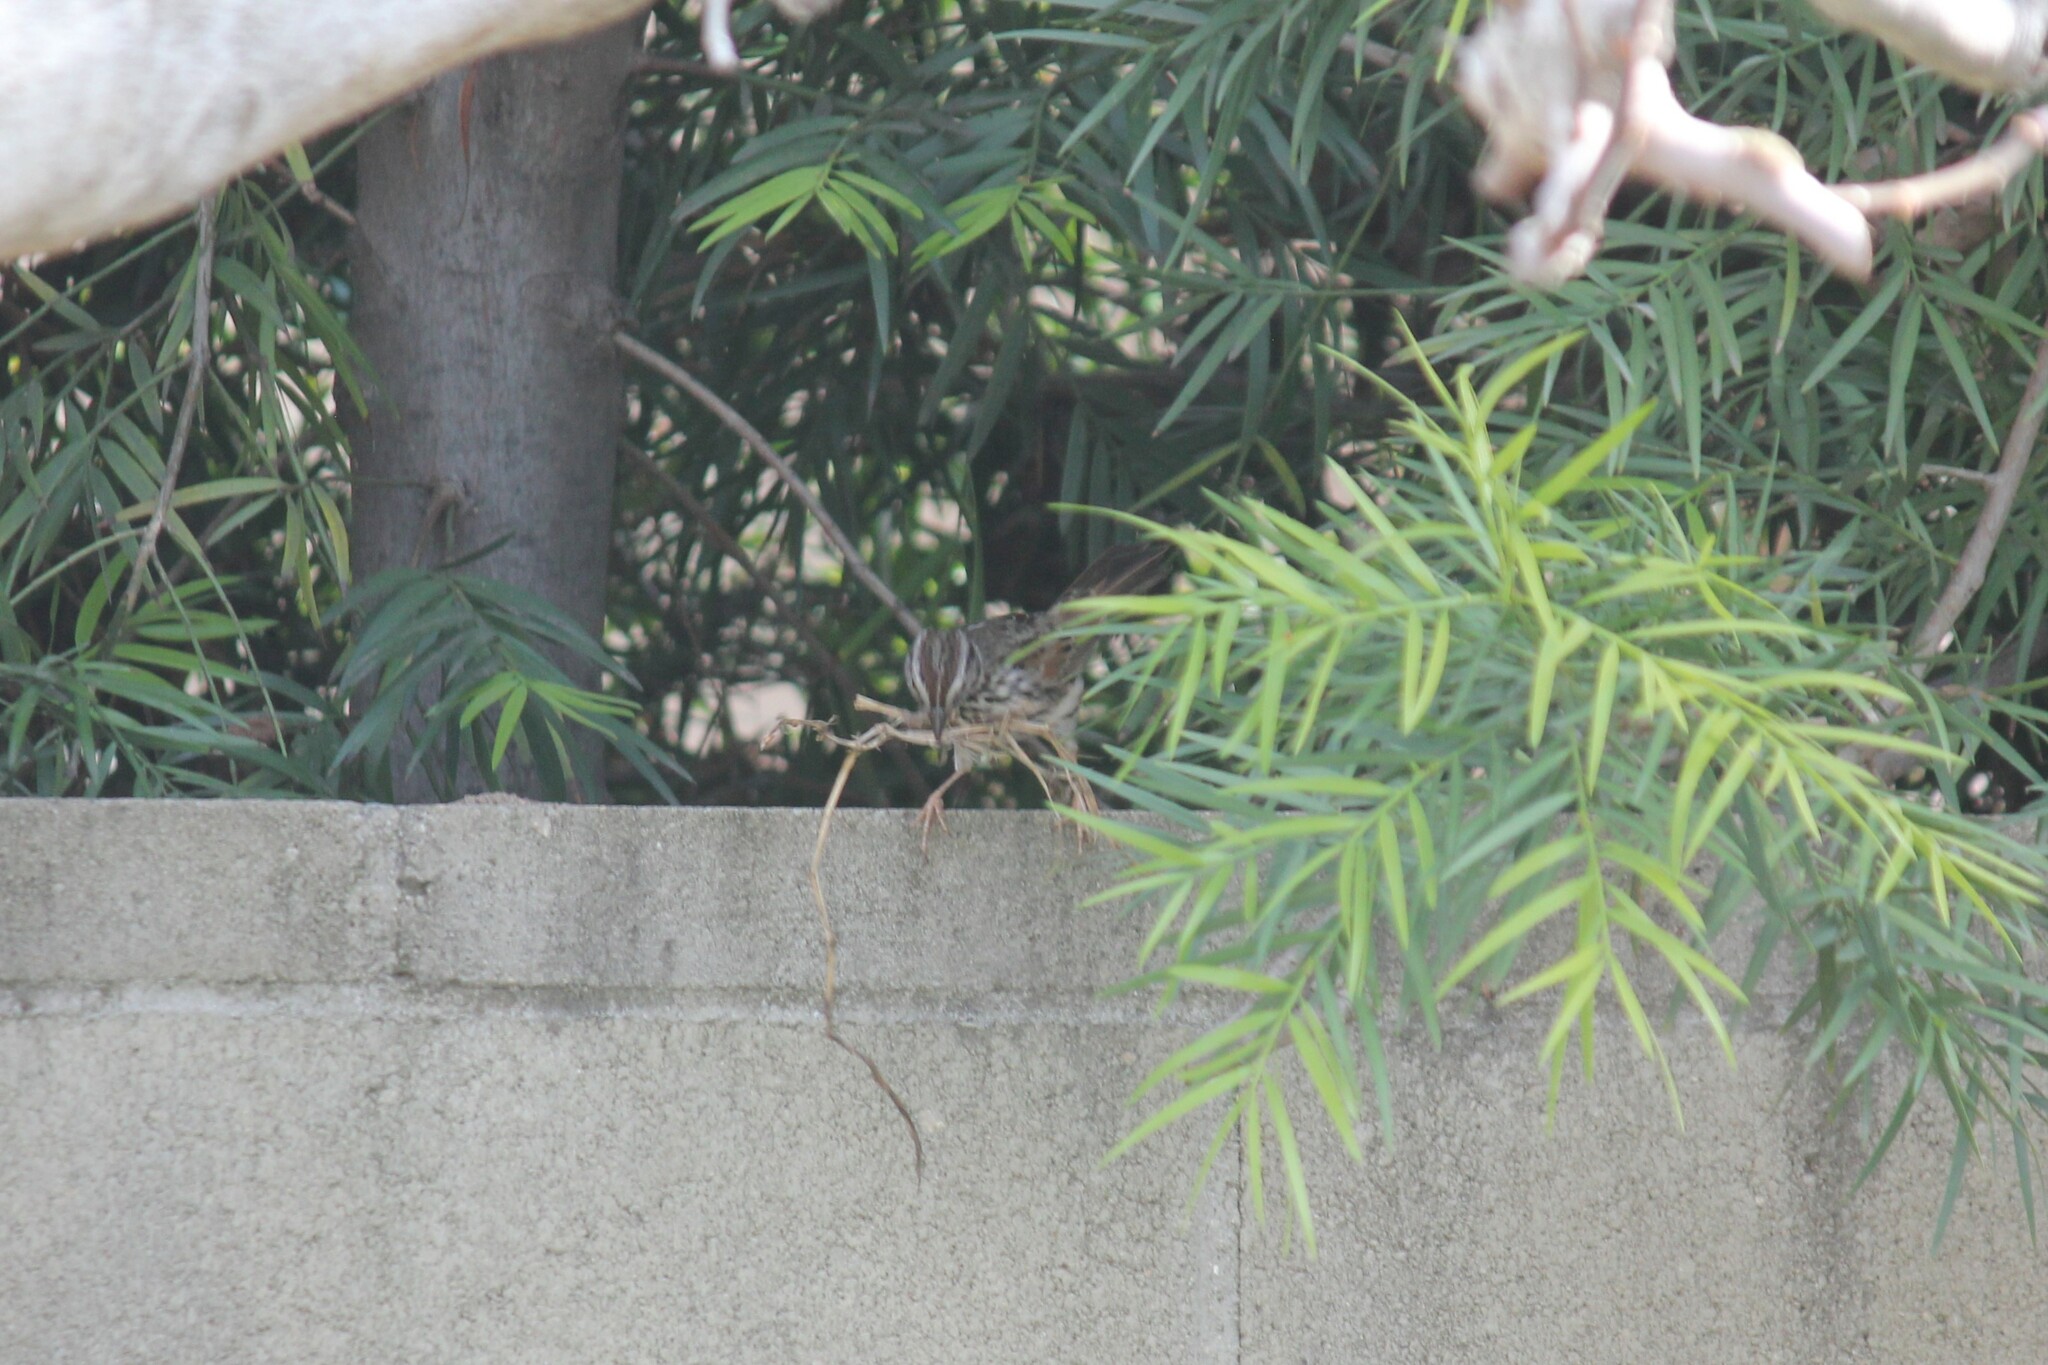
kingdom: Animalia
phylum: Chordata
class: Aves
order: Passeriformes
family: Passerellidae
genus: Melospiza
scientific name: Melospiza melodia
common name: Song sparrow
